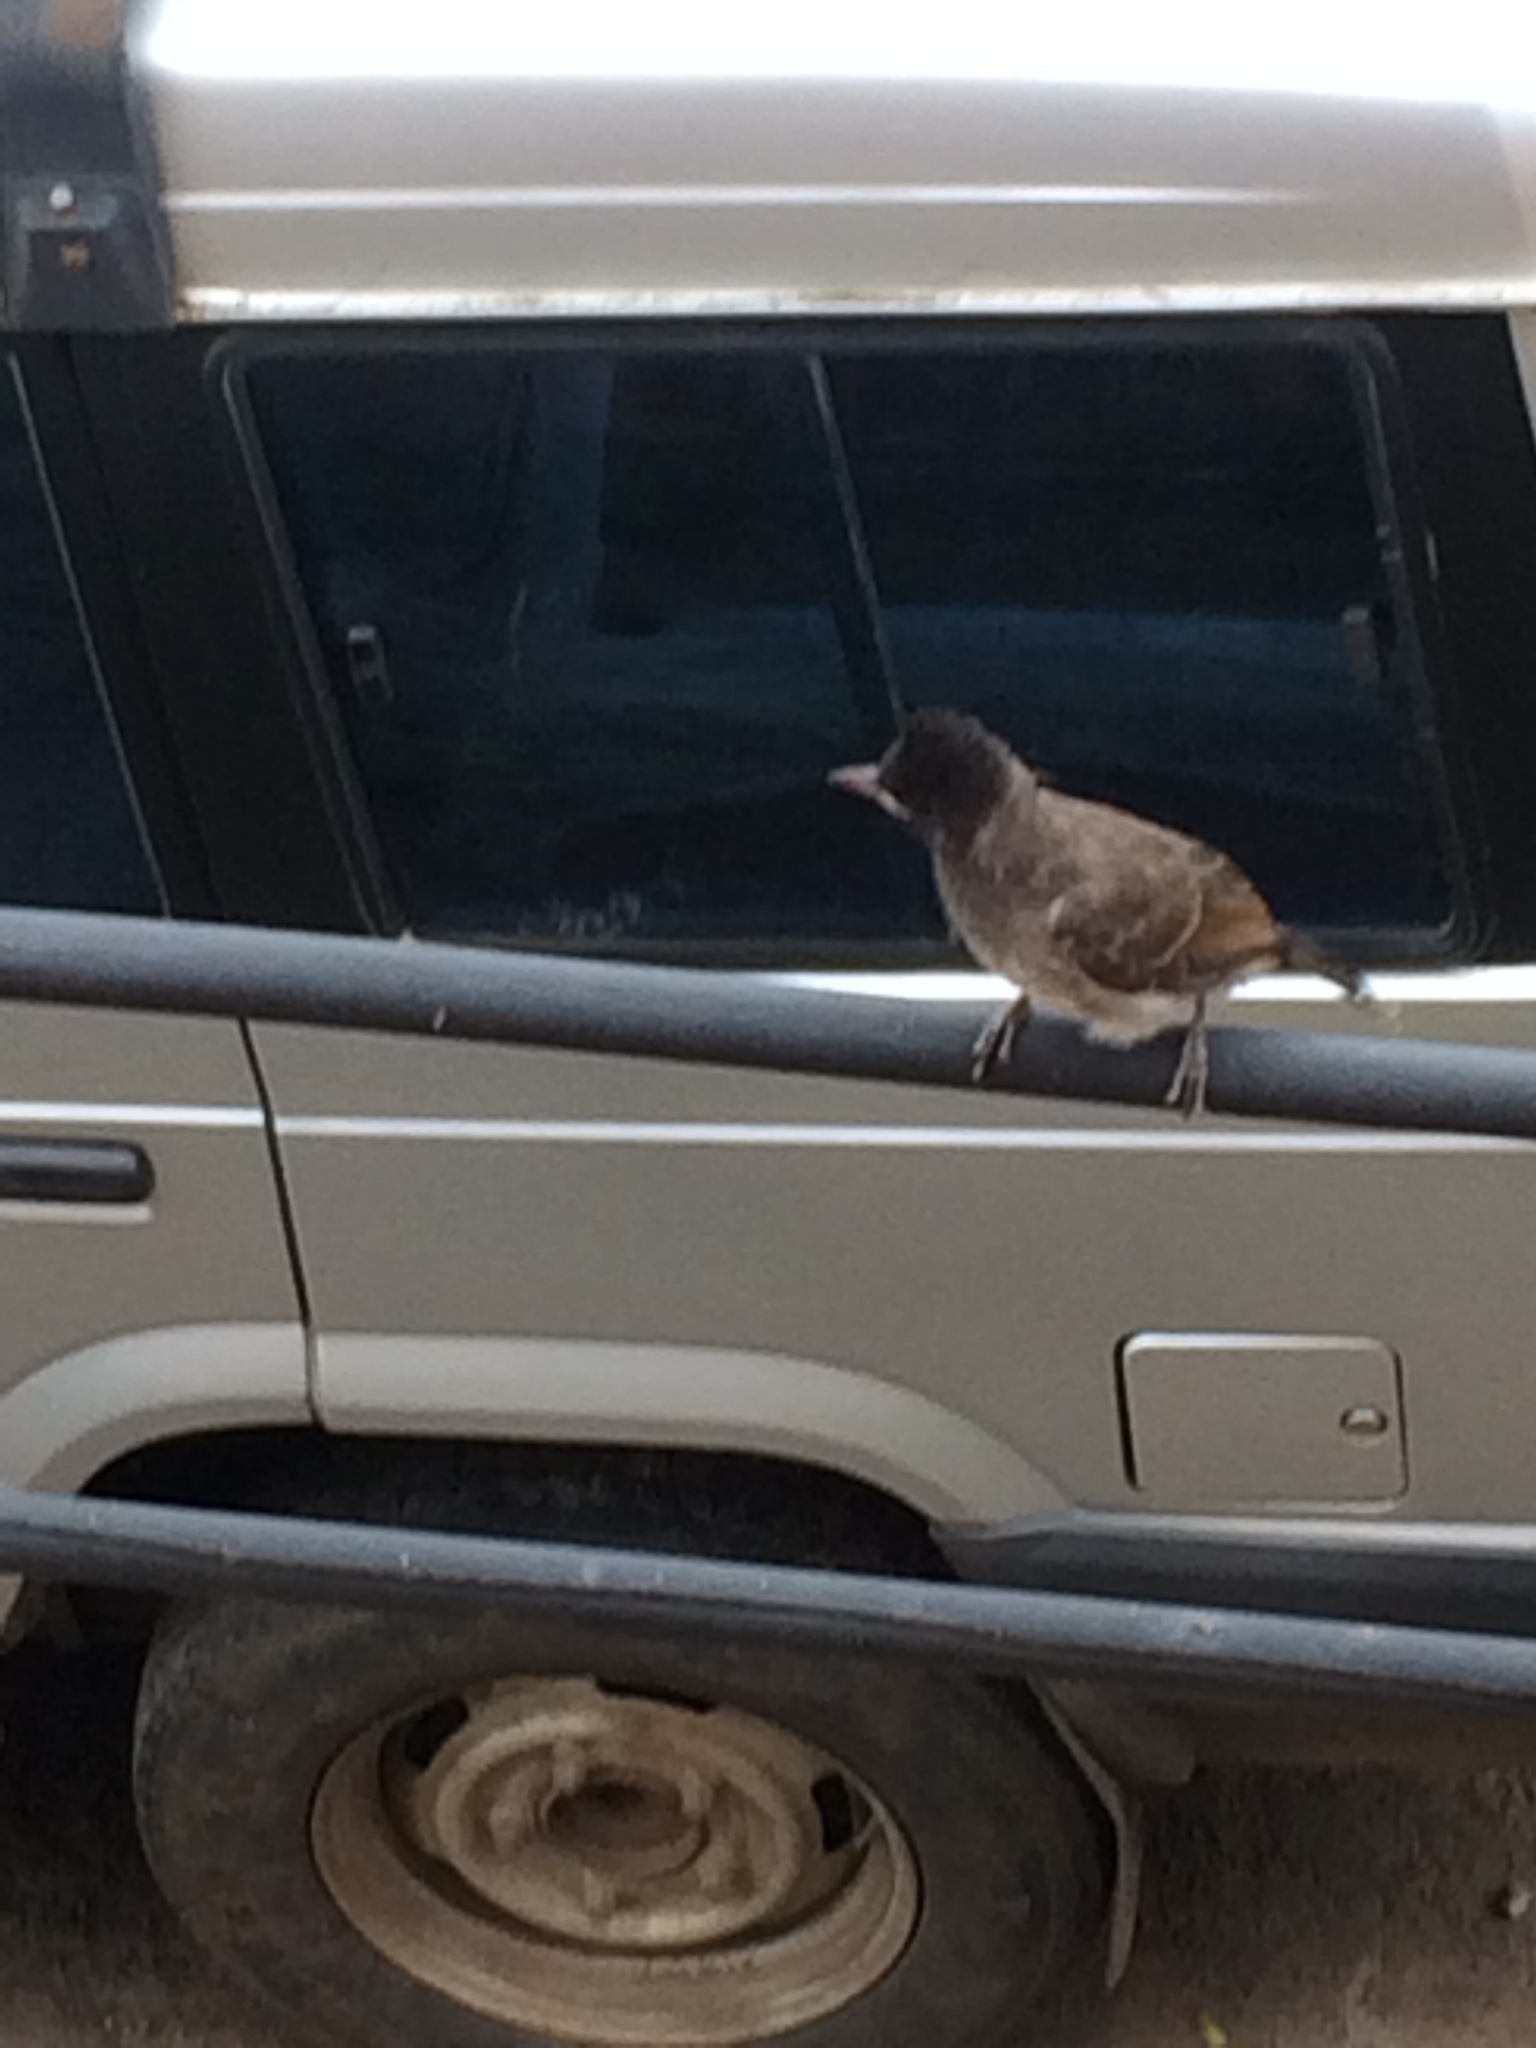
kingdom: Animalia
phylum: Chordata
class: Aves
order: Passeriformes
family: Pycnonotidae
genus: Pycnonotus
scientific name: Pycnonotus cafer
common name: Red-vented bulbul
